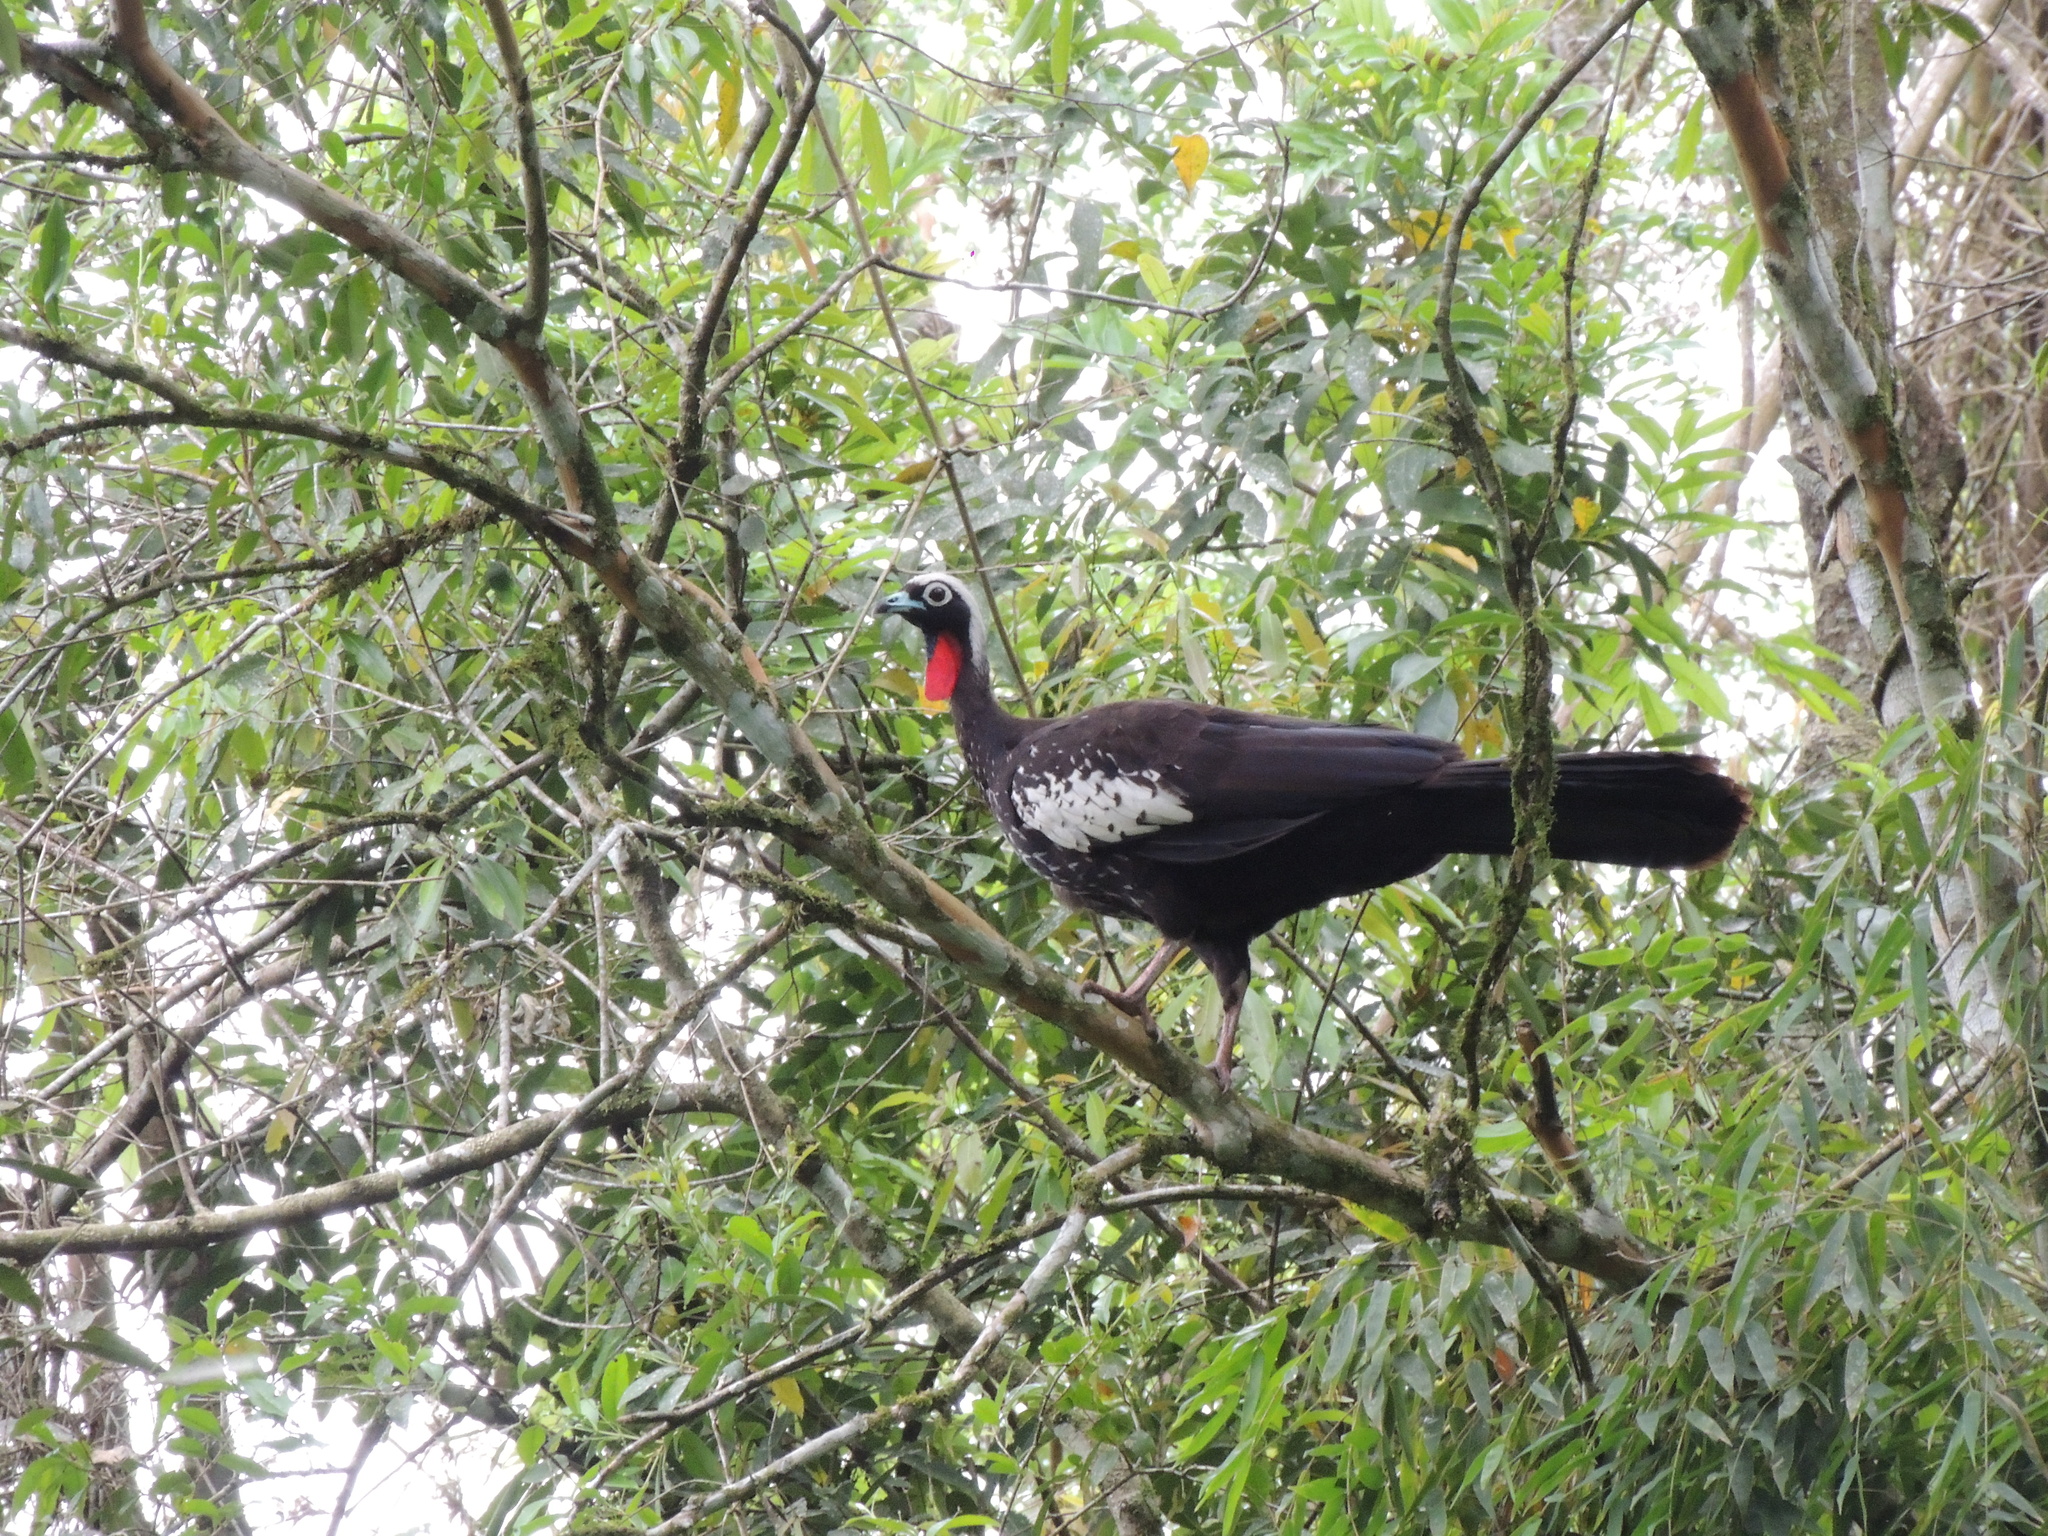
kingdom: Animalia
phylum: Chordata
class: Aves
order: Galliformes
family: Cracidae
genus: Pipile
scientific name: Pipile jacutinga
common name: Black-fronted piping-guan
